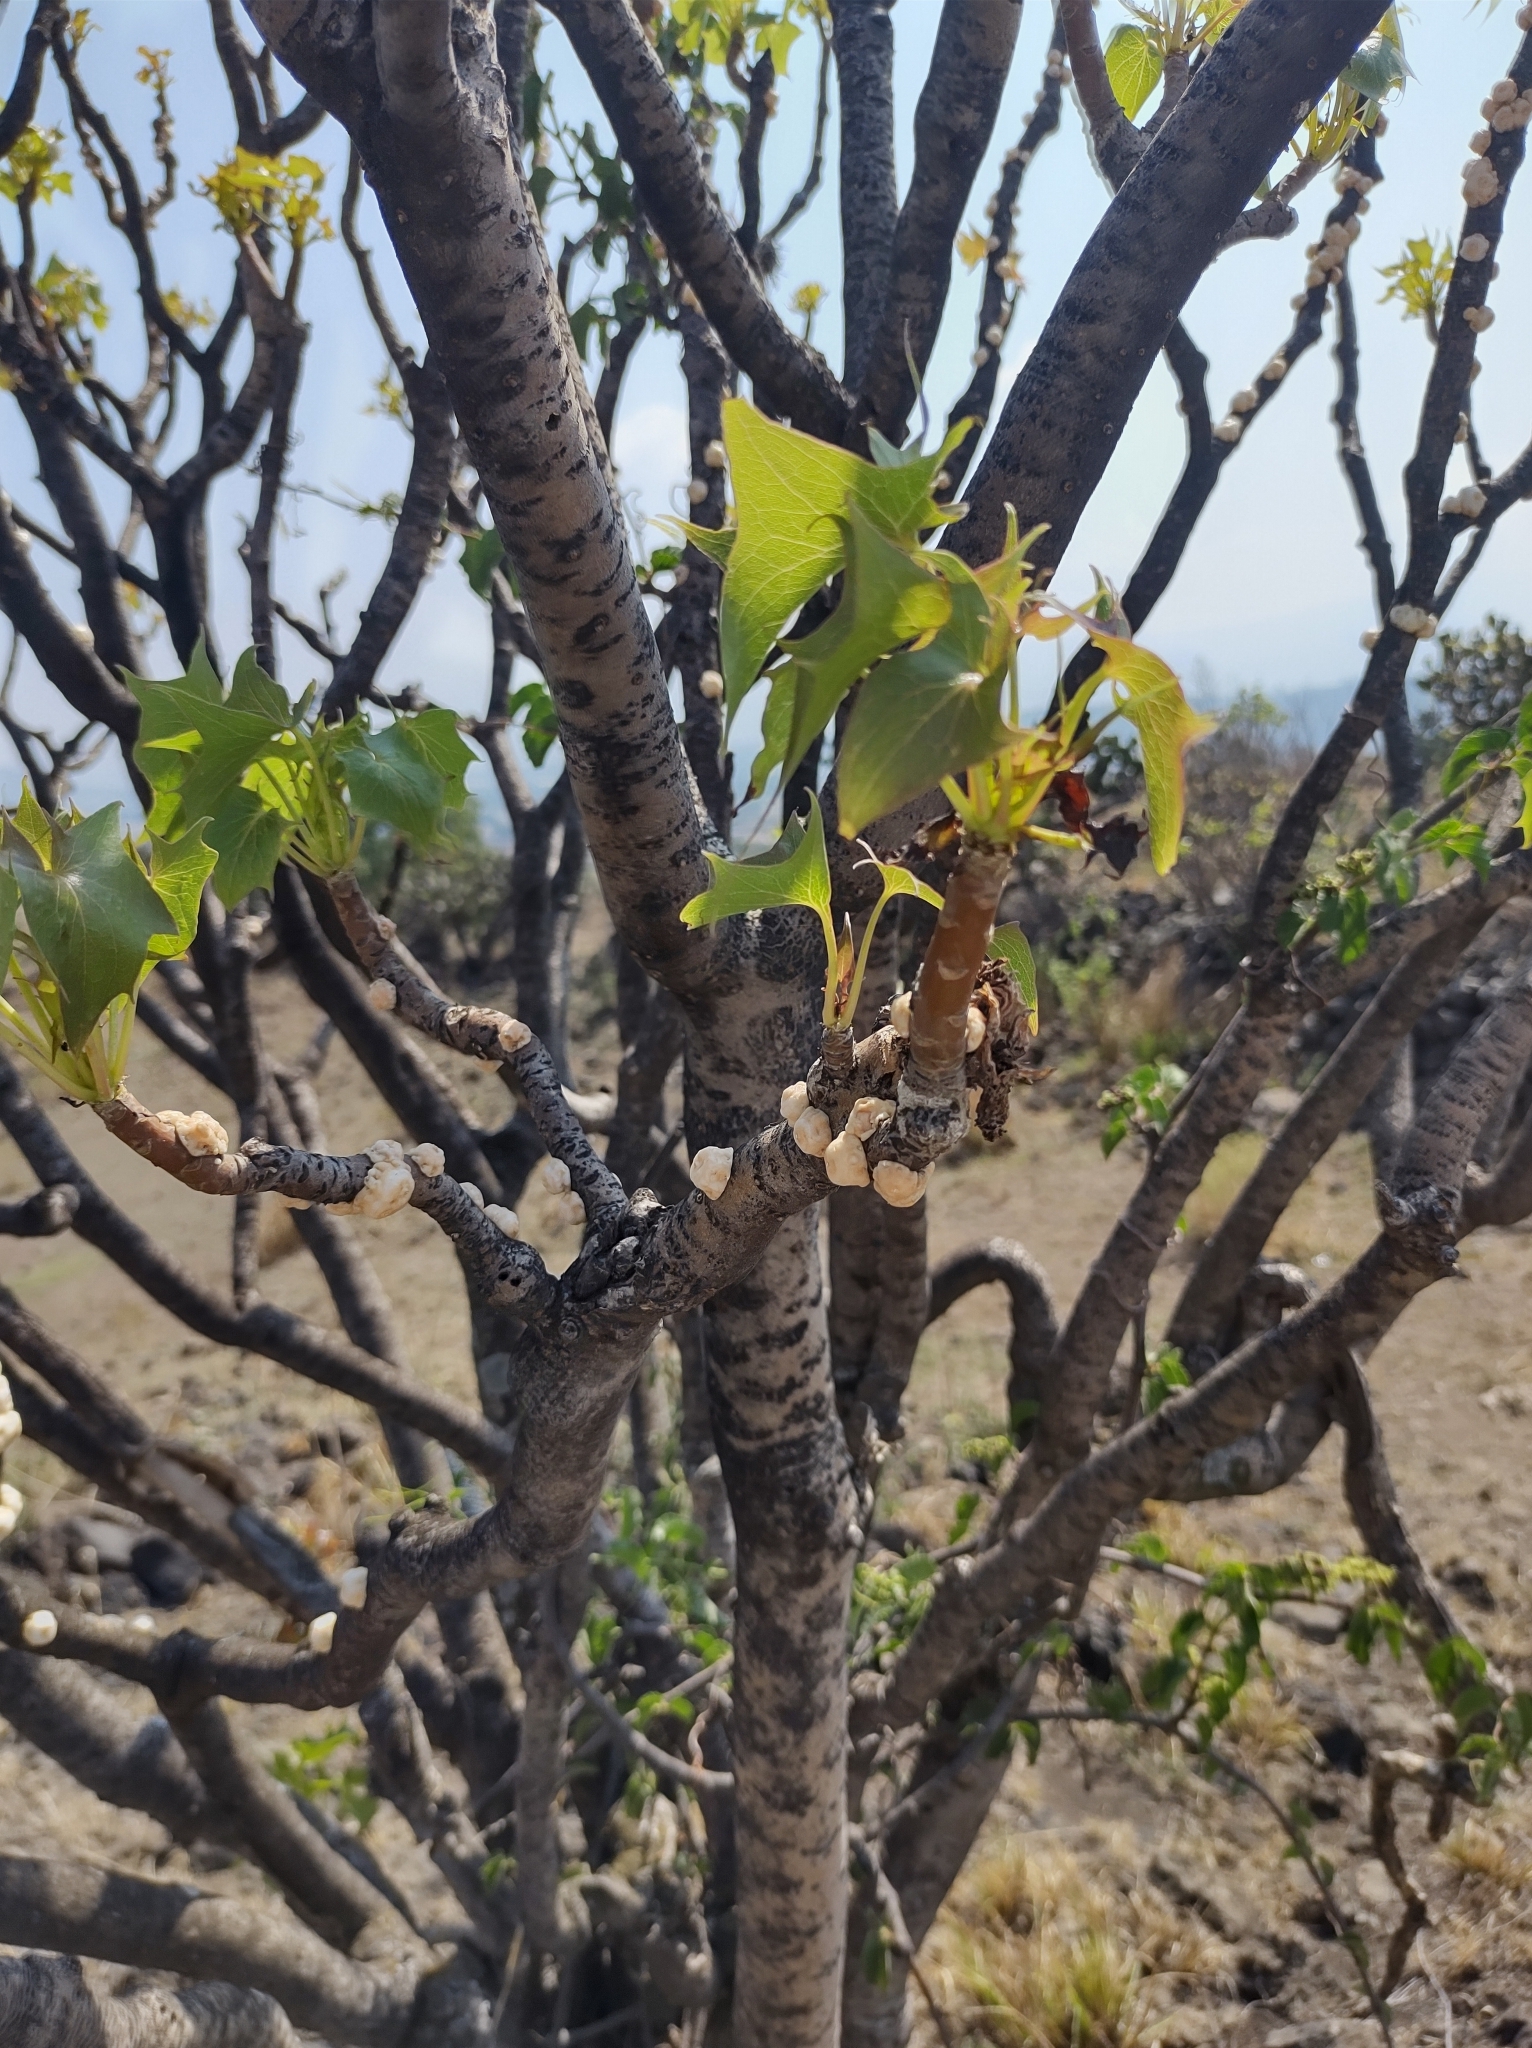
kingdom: Plantae
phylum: Tracheophyta
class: Magnoliopsida
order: Asterales
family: Asteraceae
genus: Pittocaulon
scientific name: Pittocaulon praecox
